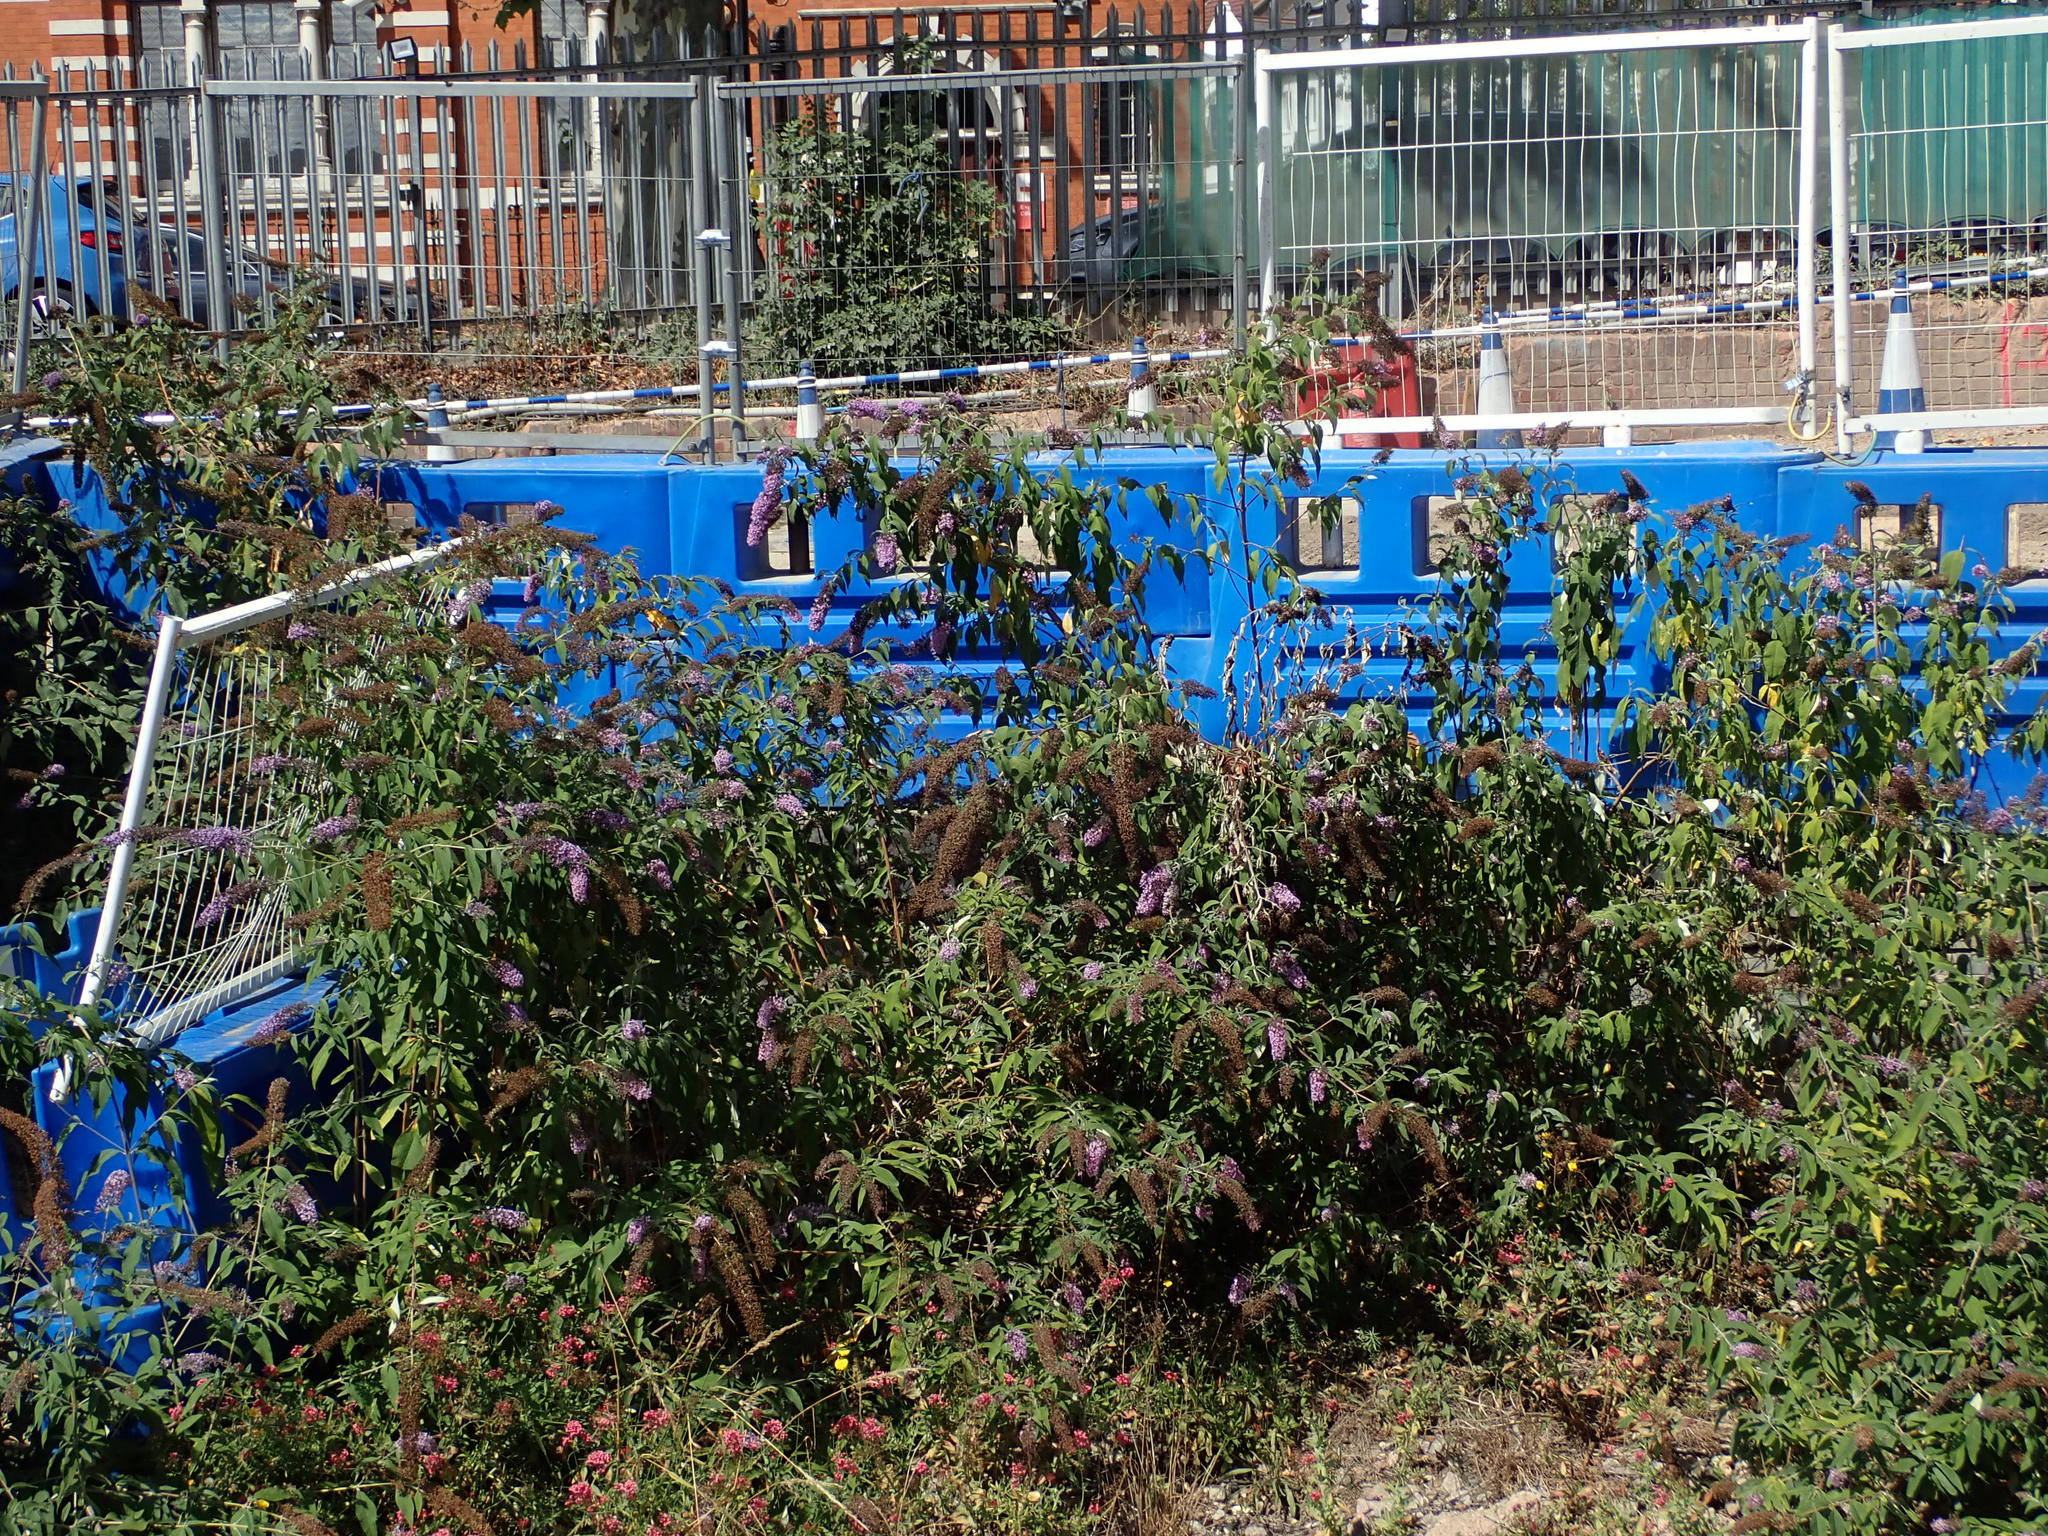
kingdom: Plantae
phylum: Tracheophyta
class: Magnoliopsida
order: Lamiales
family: Scrophulariaceae
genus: Buddleja
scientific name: Buddleja davidii
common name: Butterfly-bush
